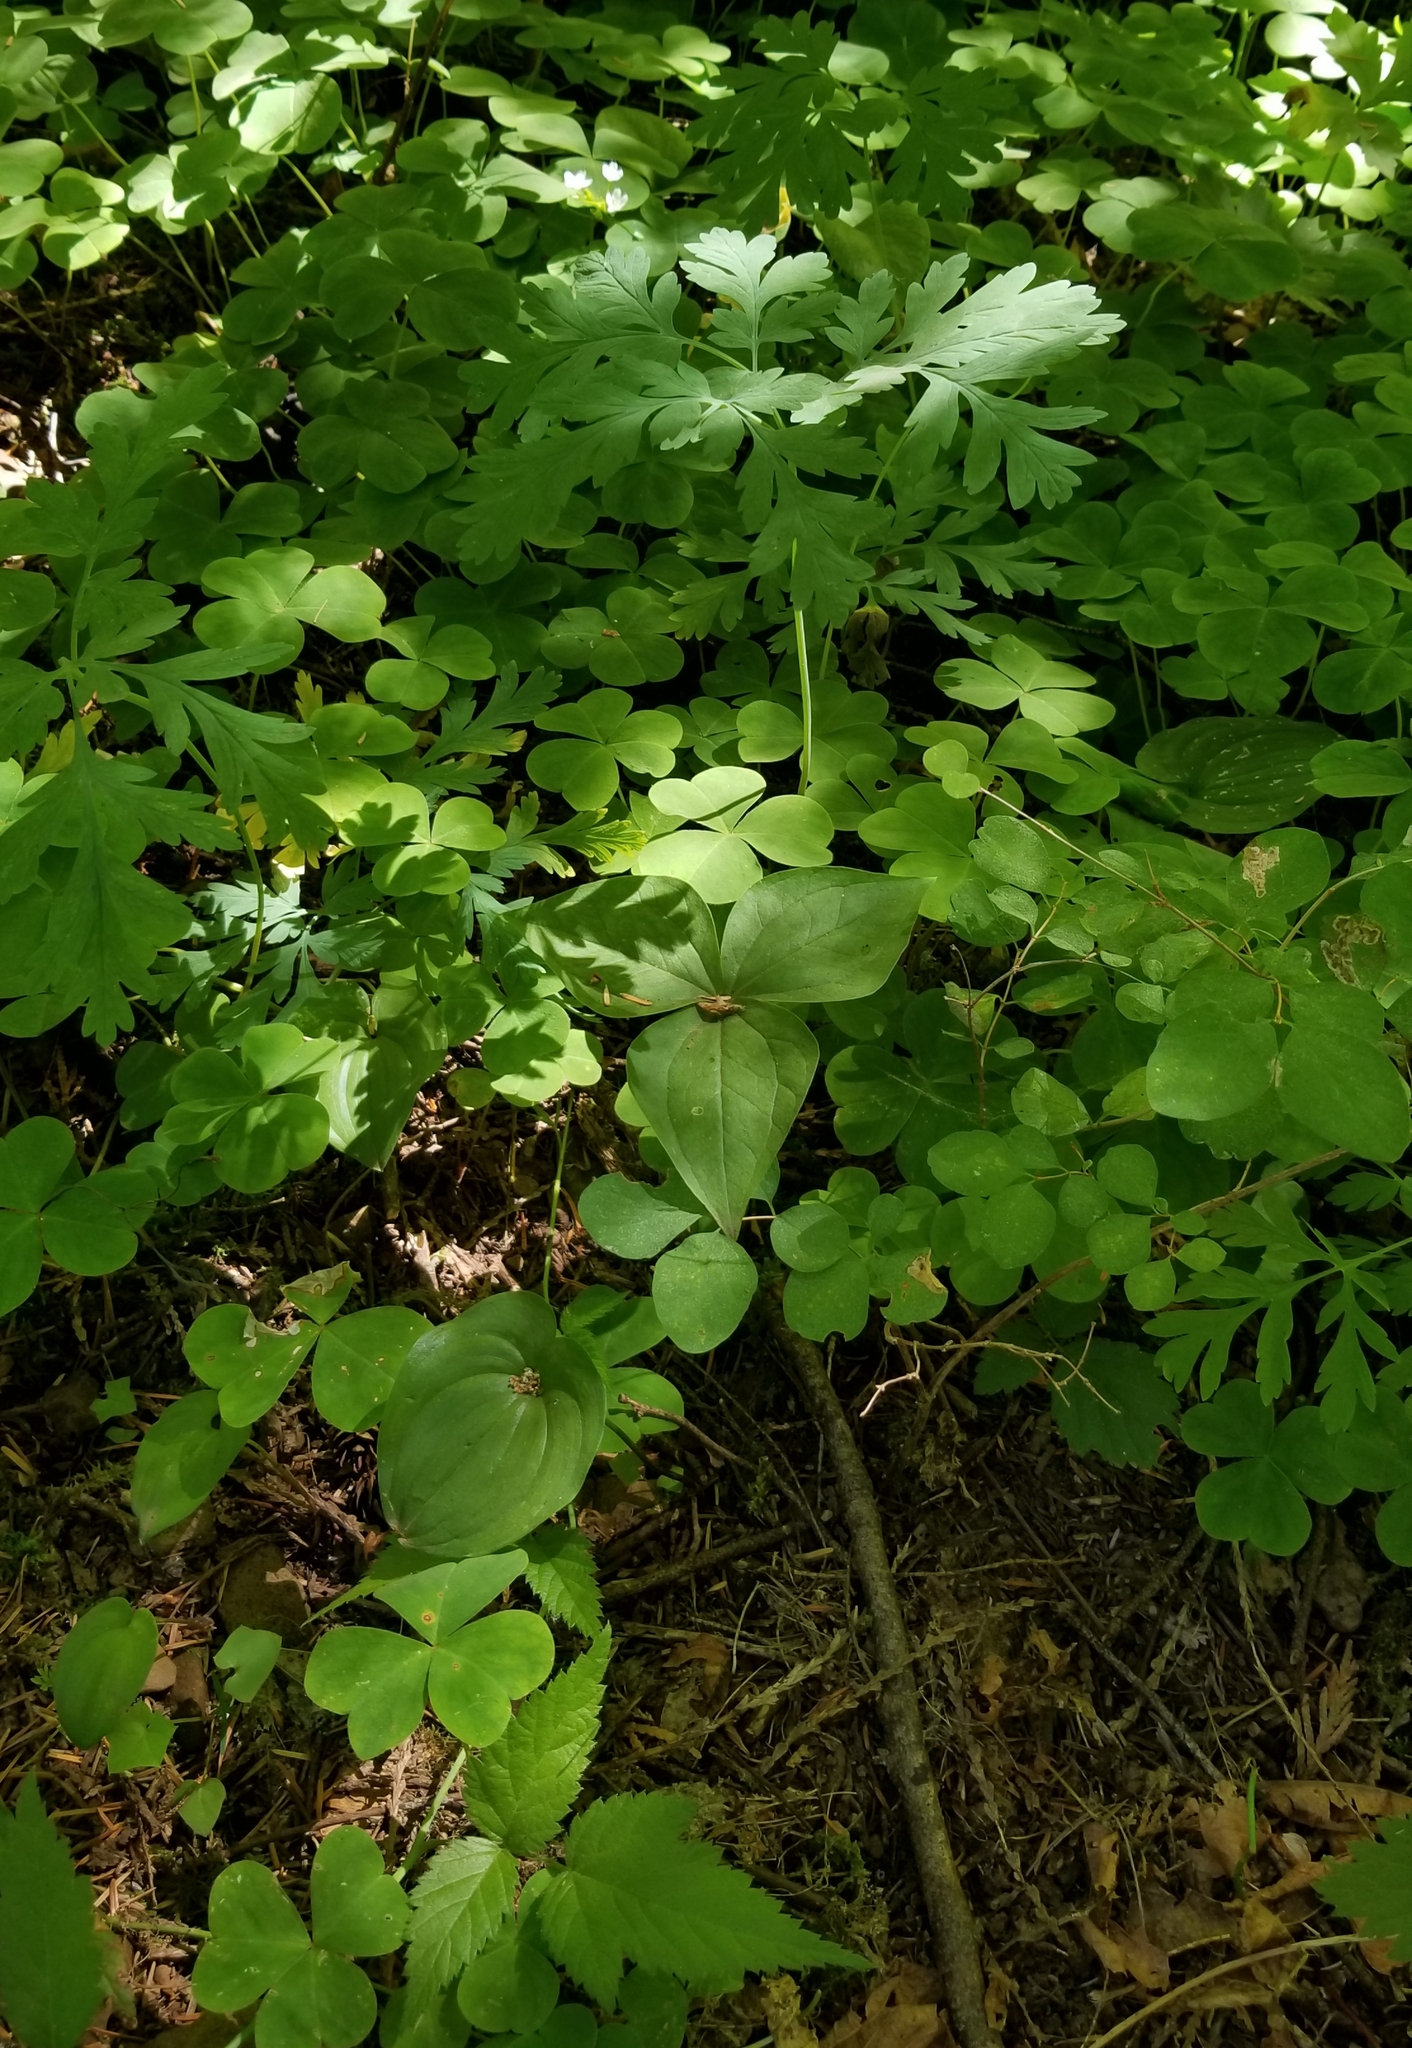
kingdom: Plantae
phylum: Tracheophyta
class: Liliopsida
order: Liliales
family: Melanthiaceae
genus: Trillium
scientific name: Trillium ovatum
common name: Pacific trillium
